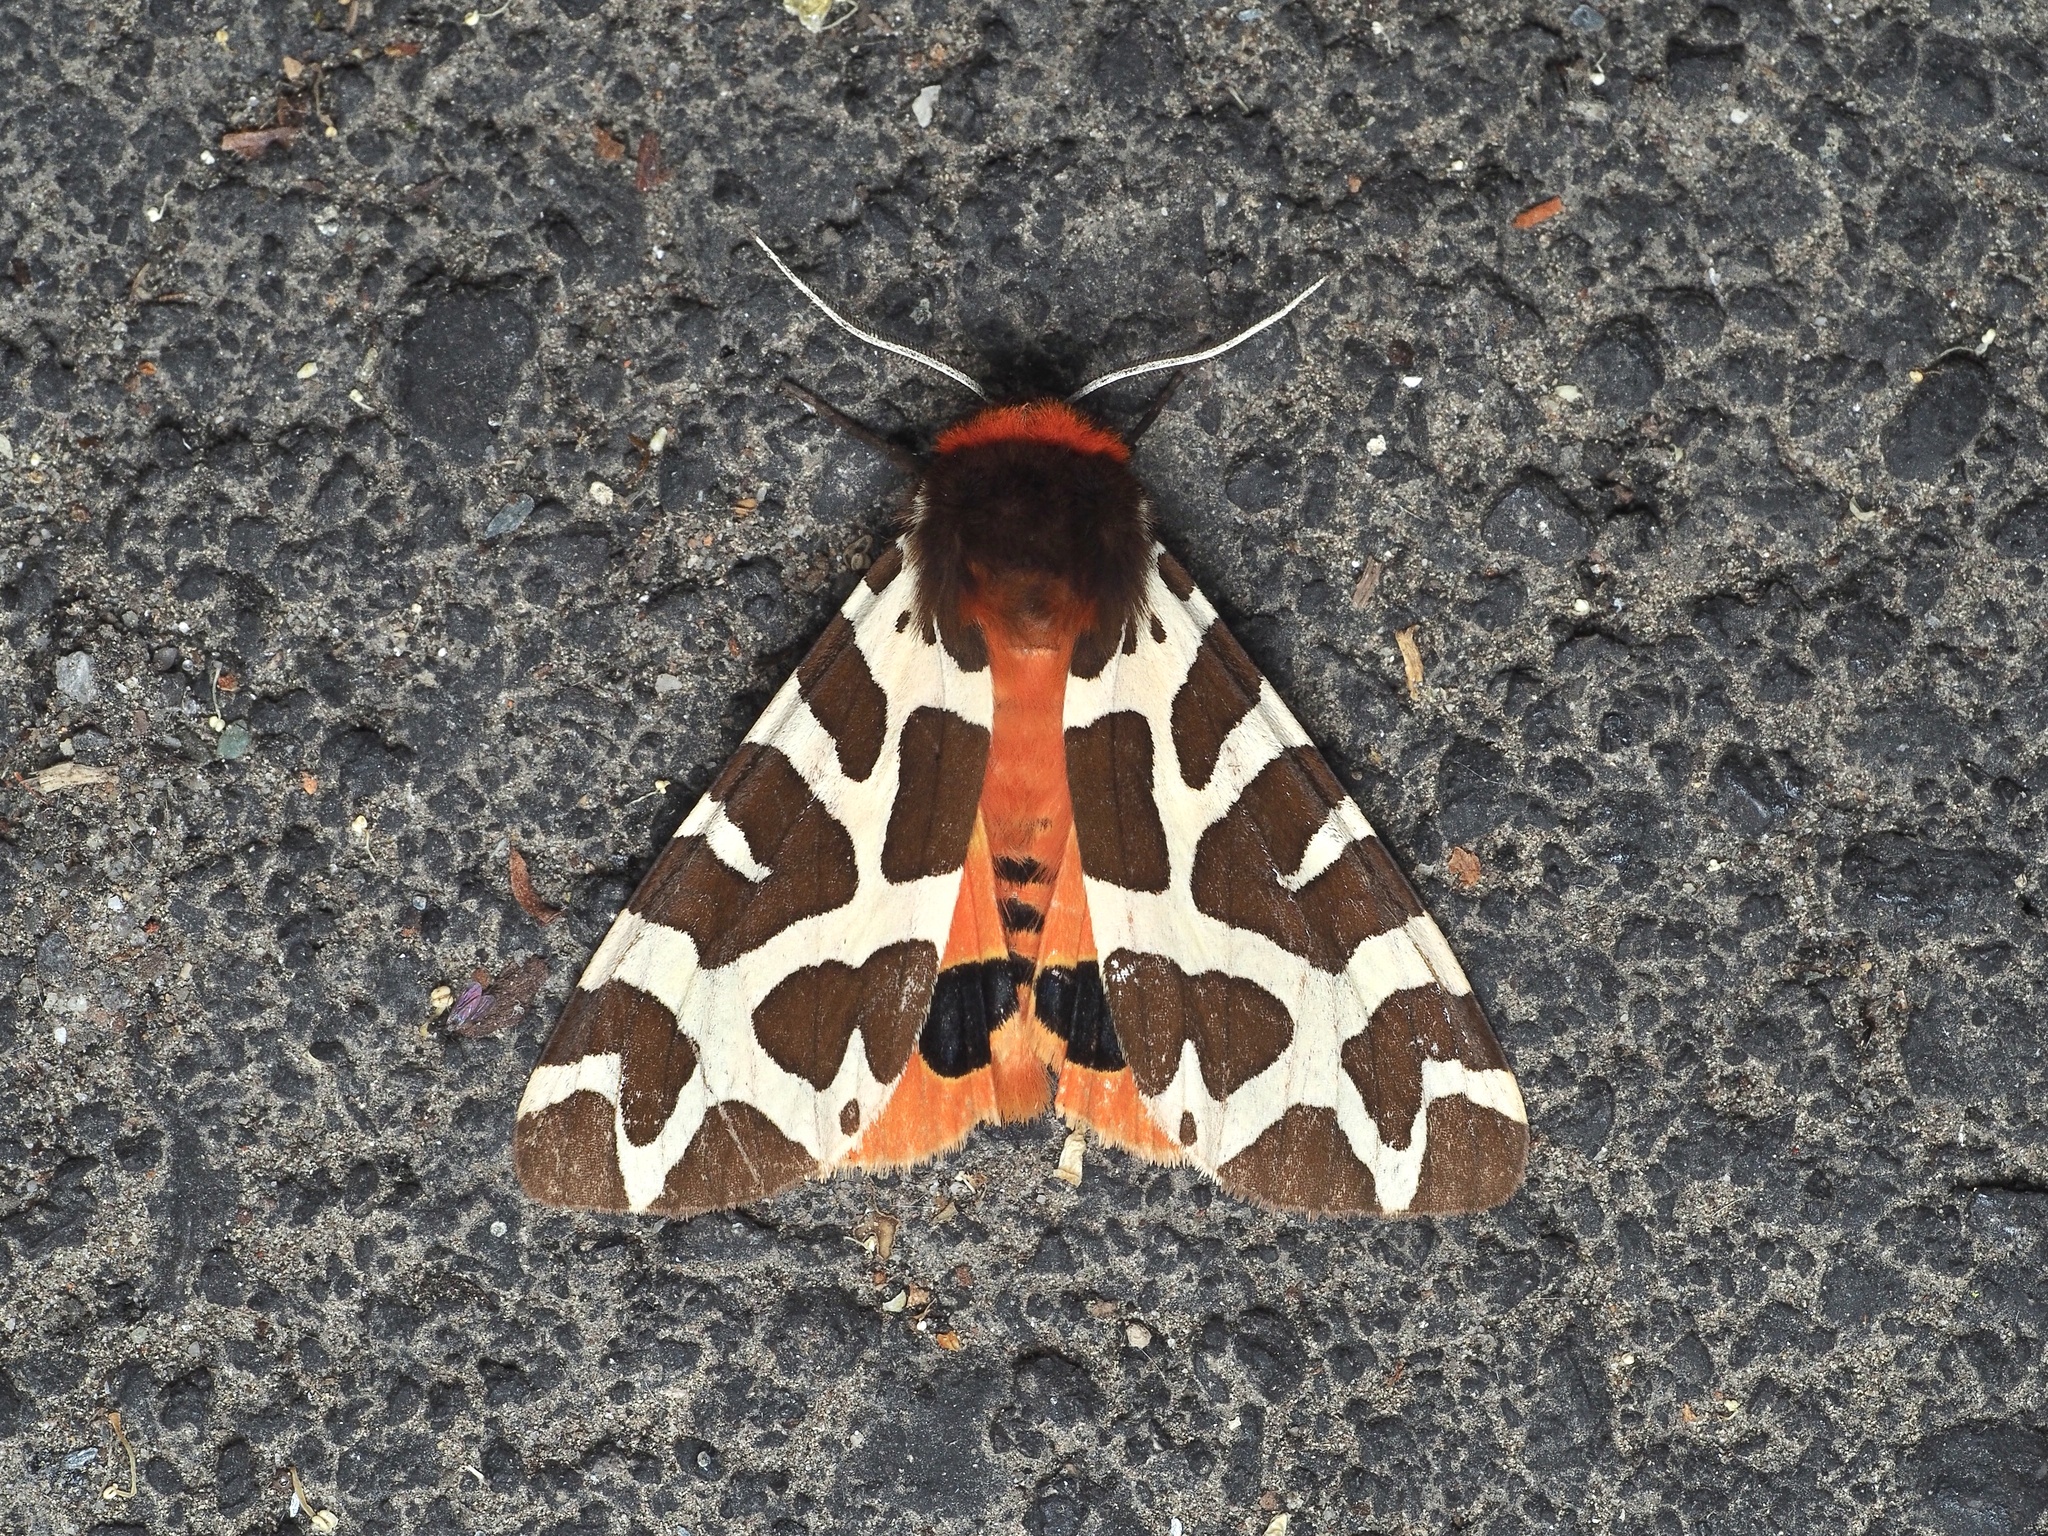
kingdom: Animalia
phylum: Arthropoda
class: Insecta
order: Lepidoptera
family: Erebidae
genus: Arctia
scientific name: Arctia caja
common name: Garden tiger
